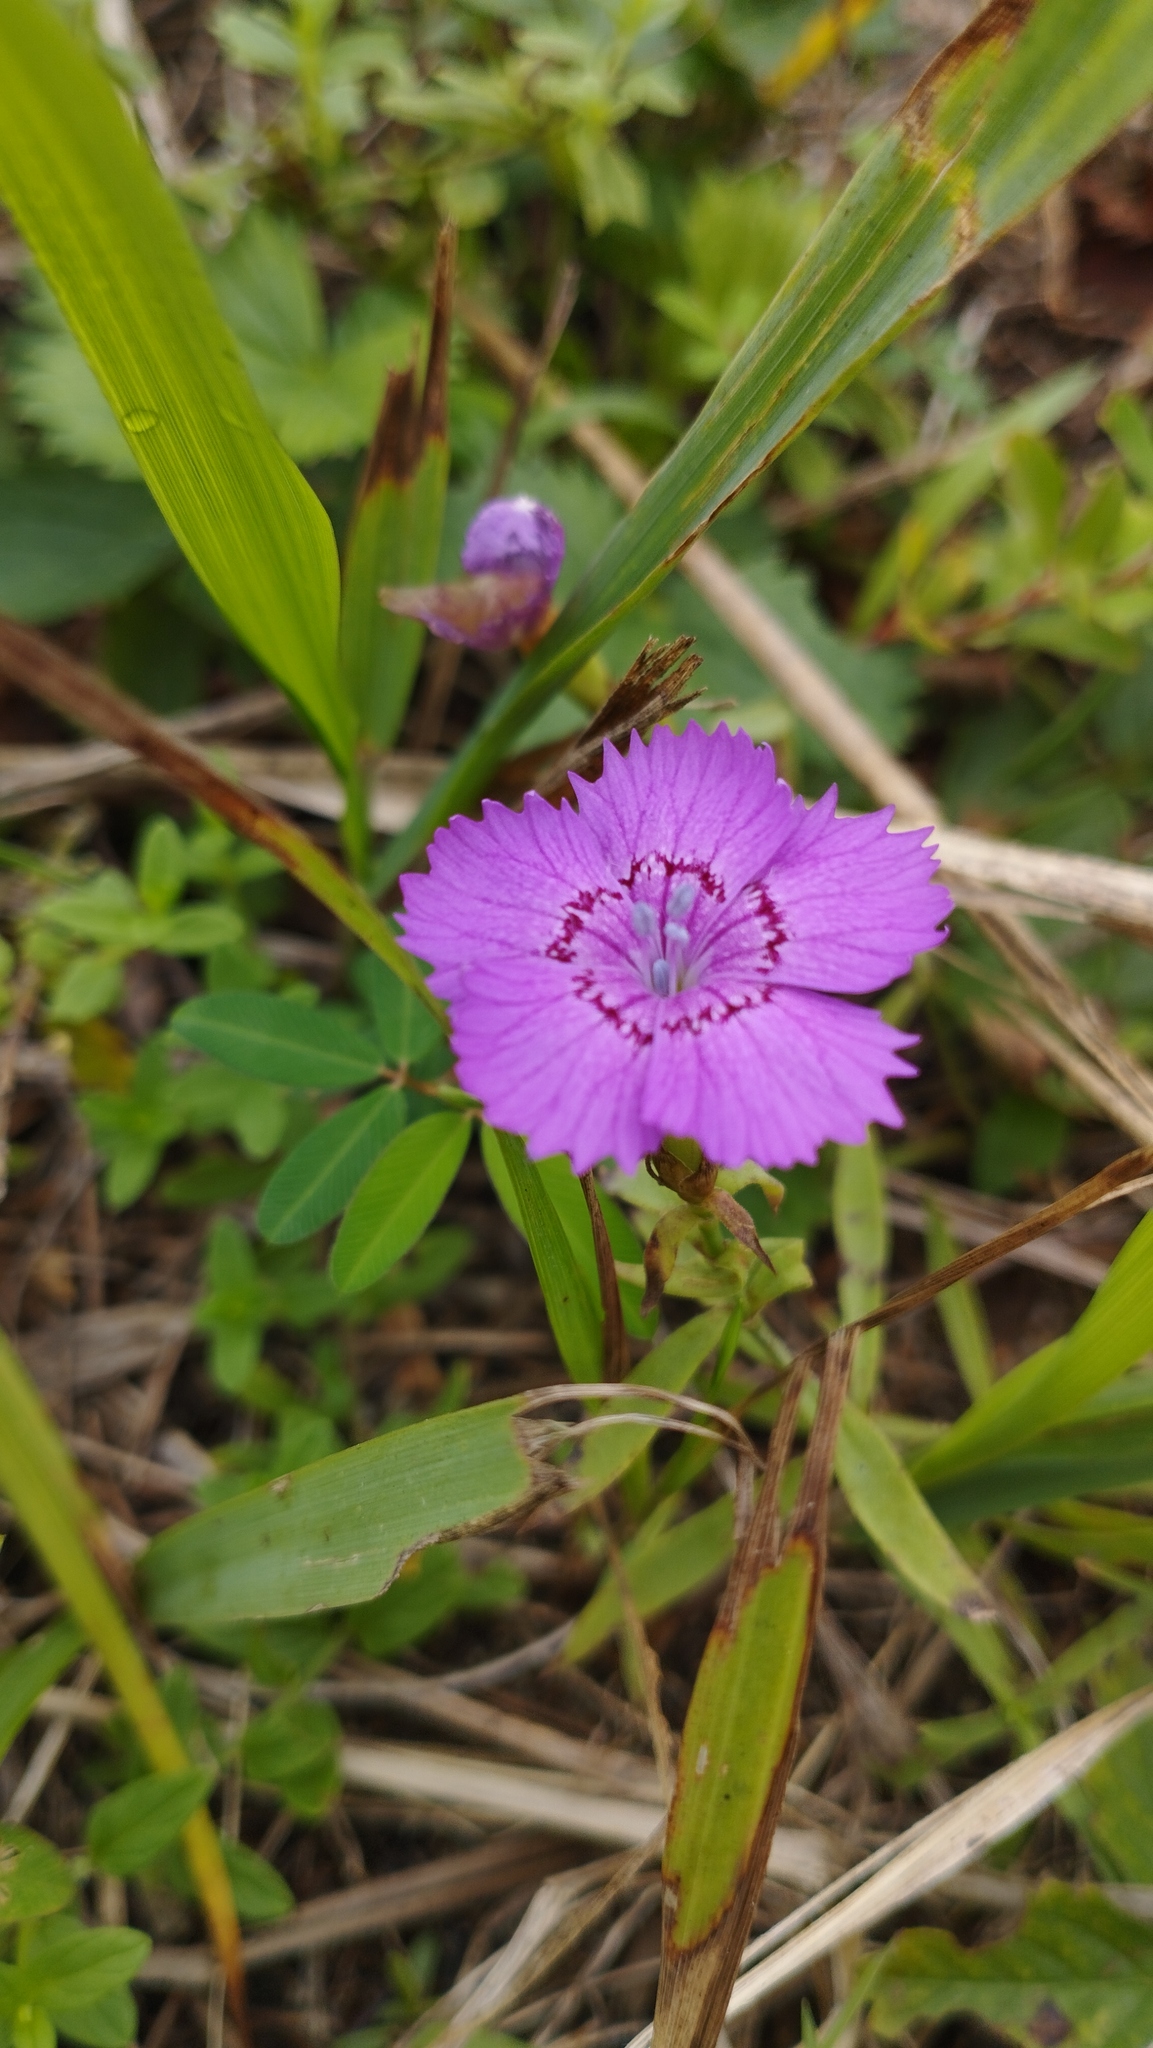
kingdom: Plantae
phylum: Tracheophyta
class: Magnoliopsida
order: Caryophyllales
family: Caryophyllaceae
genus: Dianthus
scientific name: Dianthus chinensis
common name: Rainbow pink
